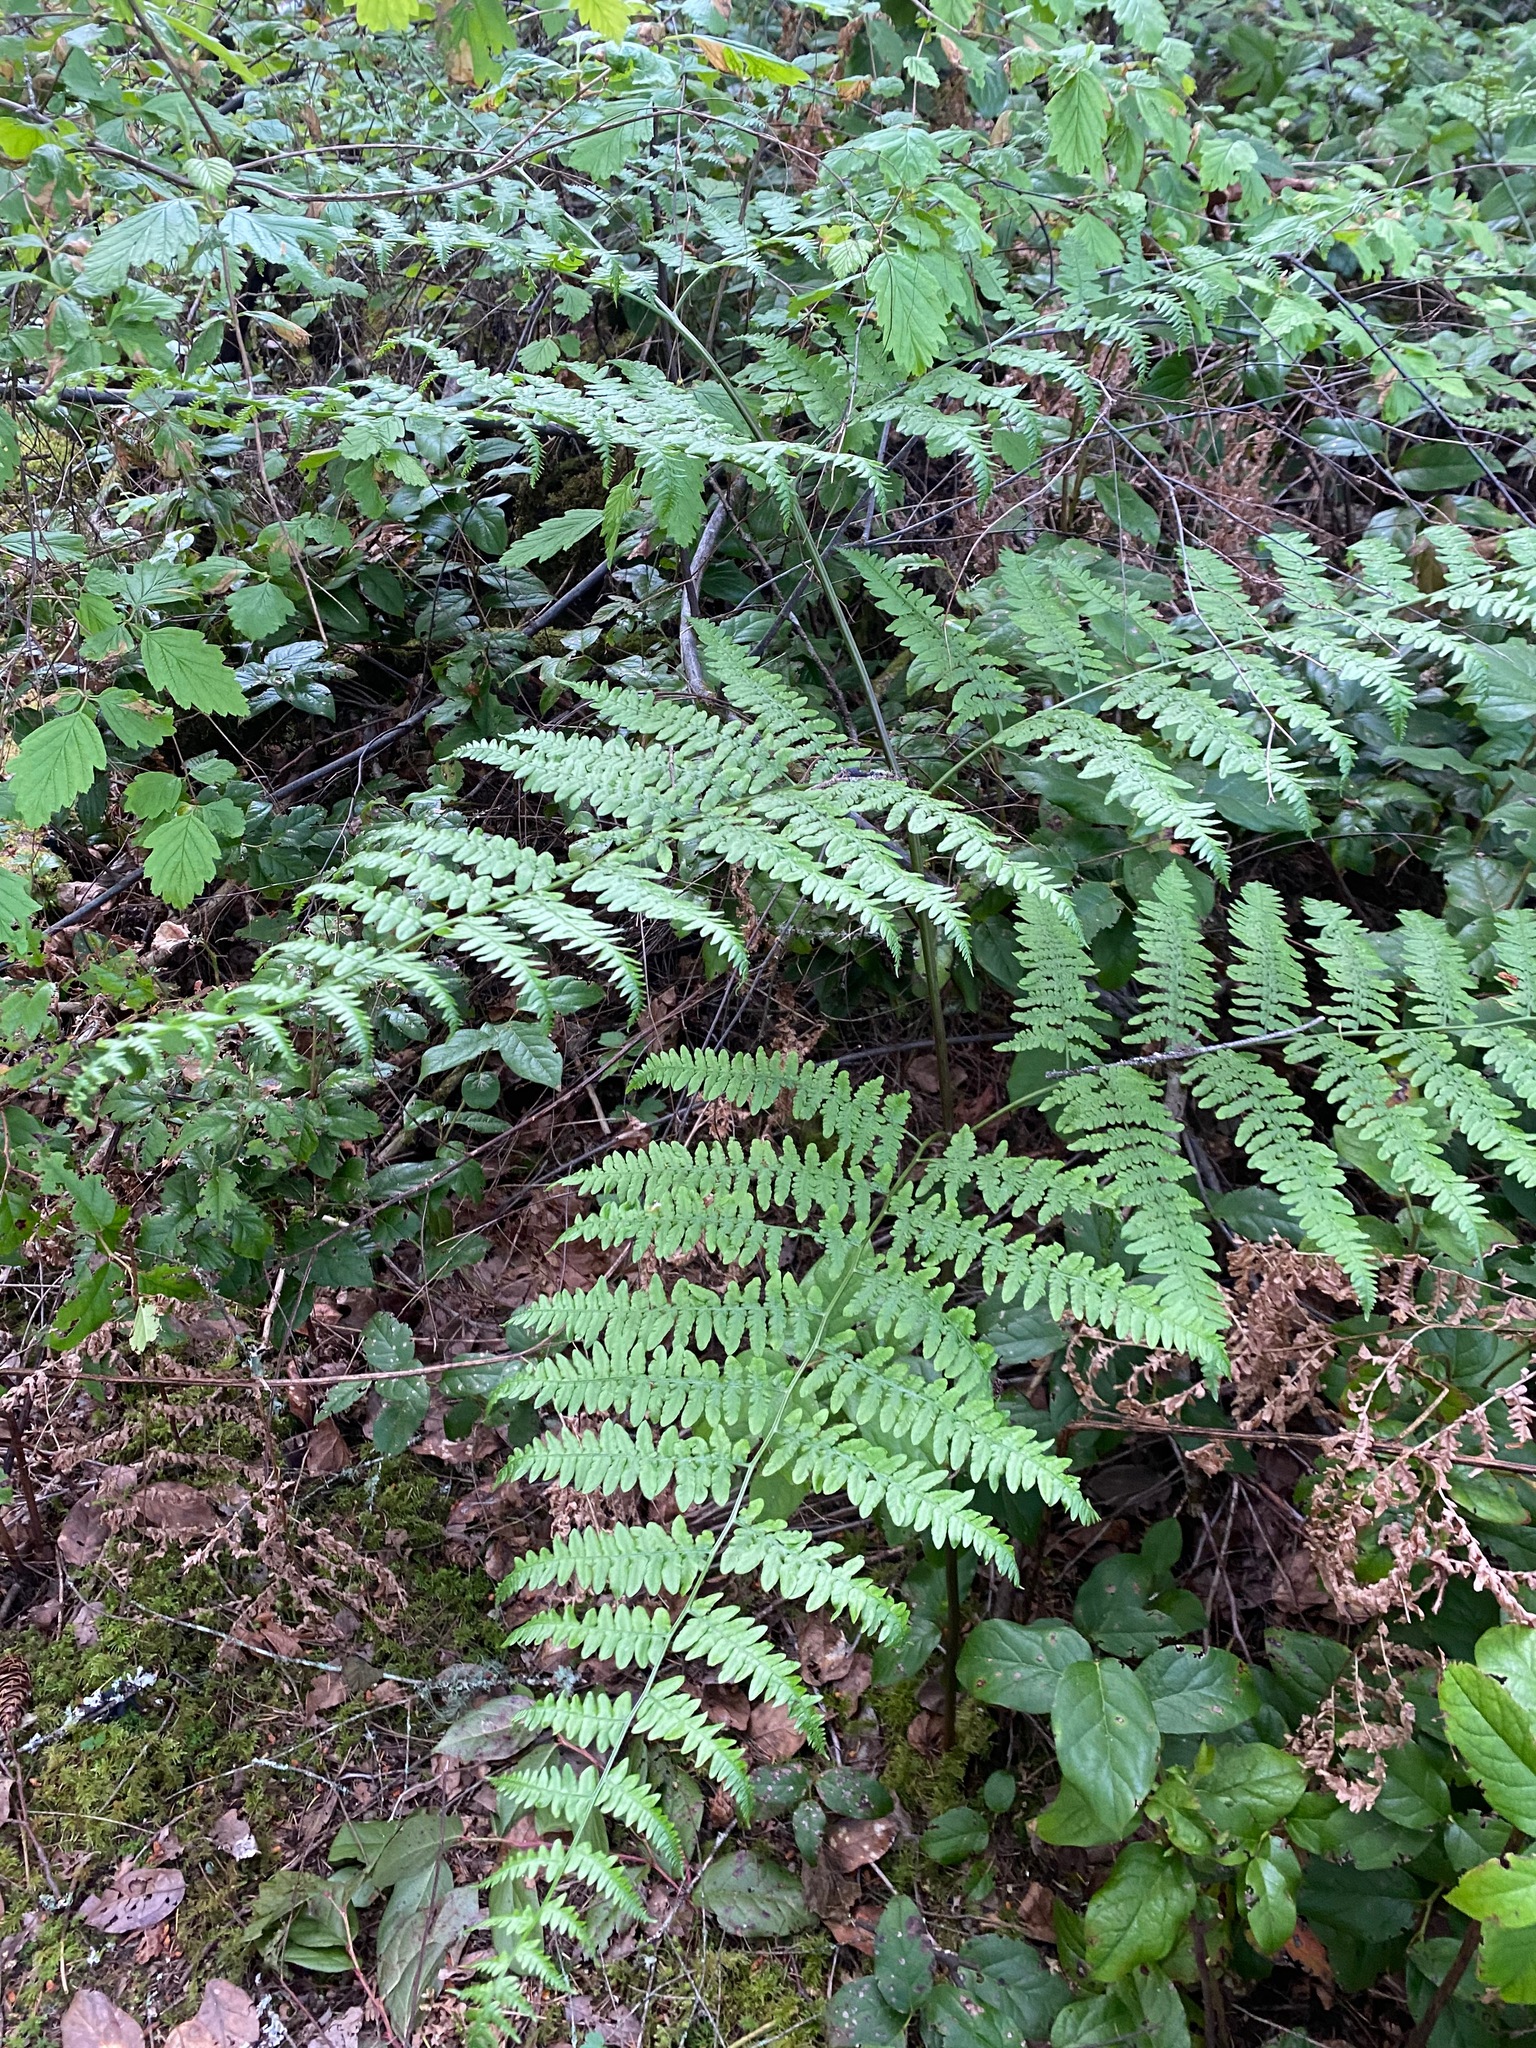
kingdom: Plantae
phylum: Tracheophyta
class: Polypodiopsida
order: Polypodiales
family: Dennstaedtiaceae
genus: Pteridium
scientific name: Pteridium aquilinum
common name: Bracken
